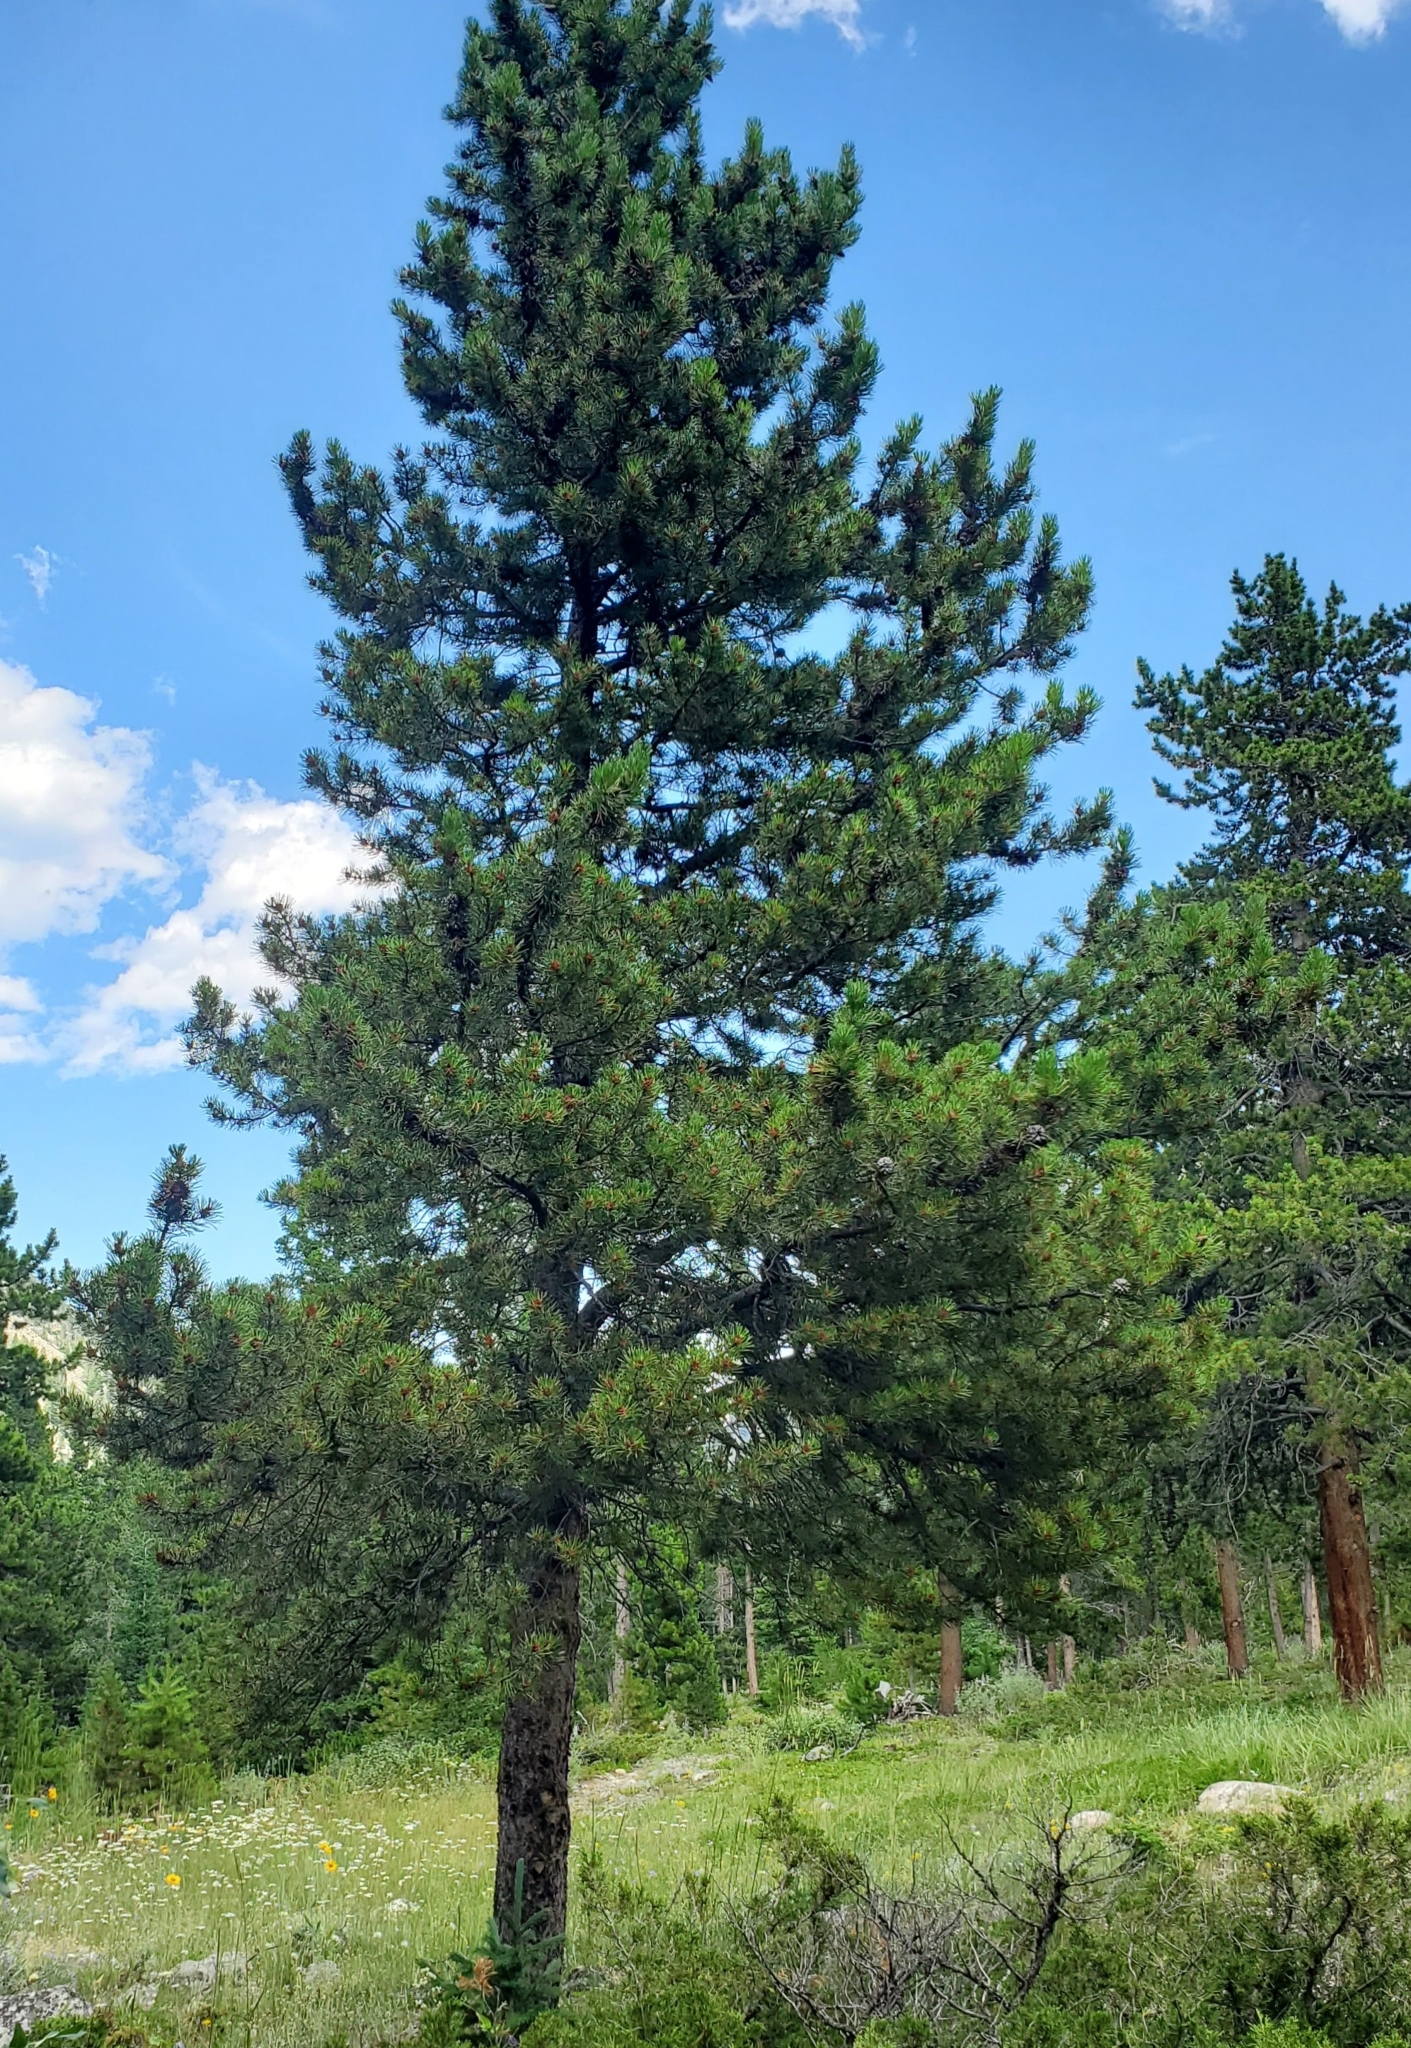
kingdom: Plantae
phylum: Tracheophyta
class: Pinopsida
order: Pinales
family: Pinaceae
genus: Pinus
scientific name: Pinus contorta
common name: Lodgepole pine
